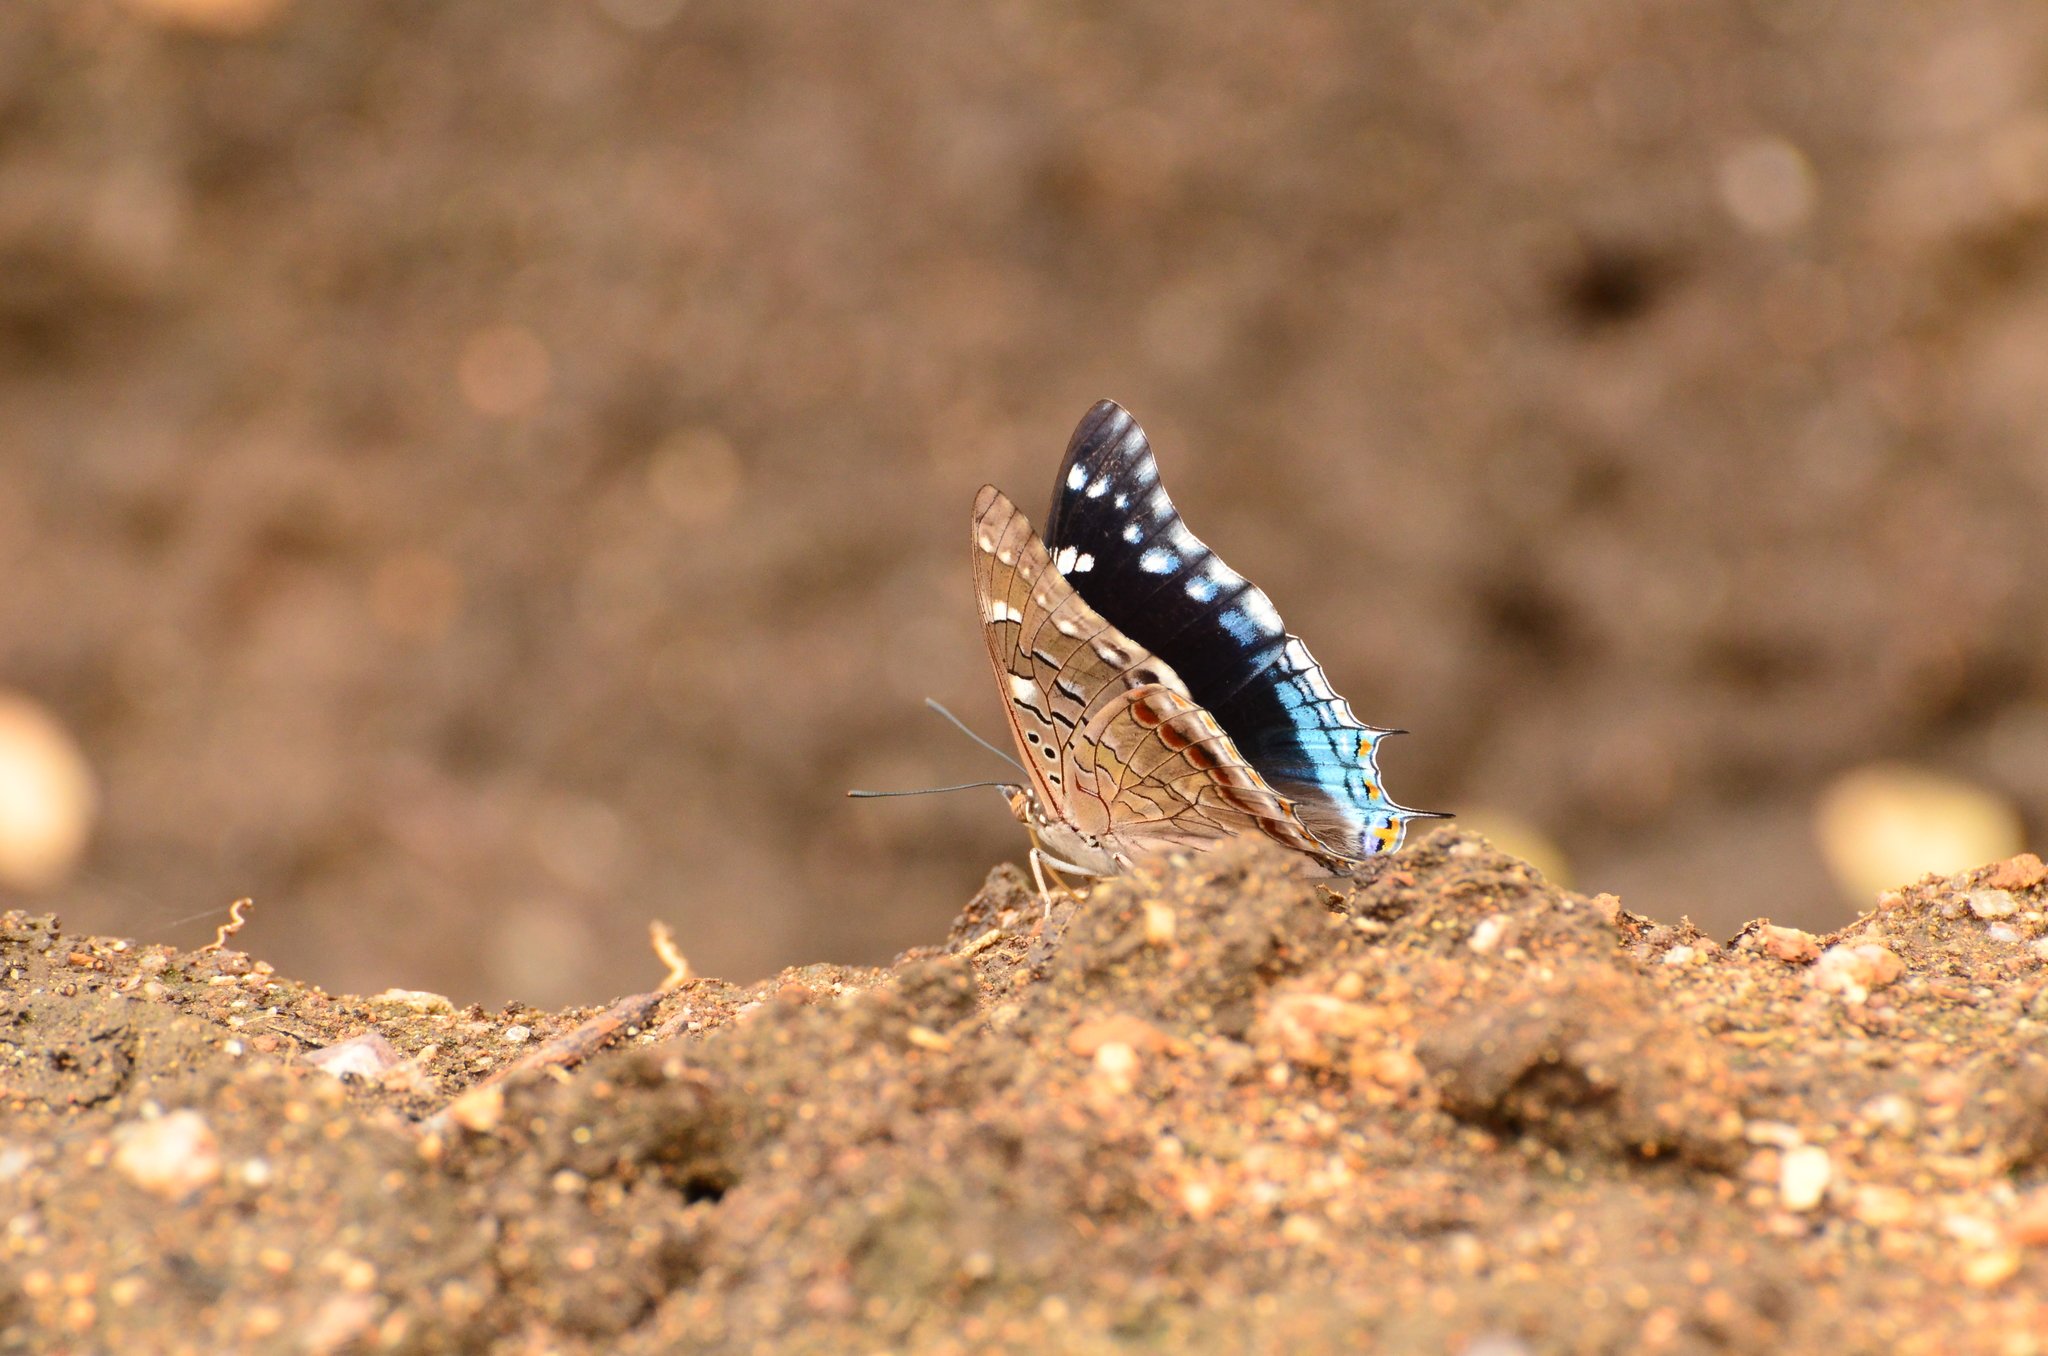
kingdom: Animalia
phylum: Arthropoda
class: Insecta
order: Lepidoptera
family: Nymphalidae
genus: Charaxes
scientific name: Charaxes guderiana
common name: Blue-spangled charaxes
